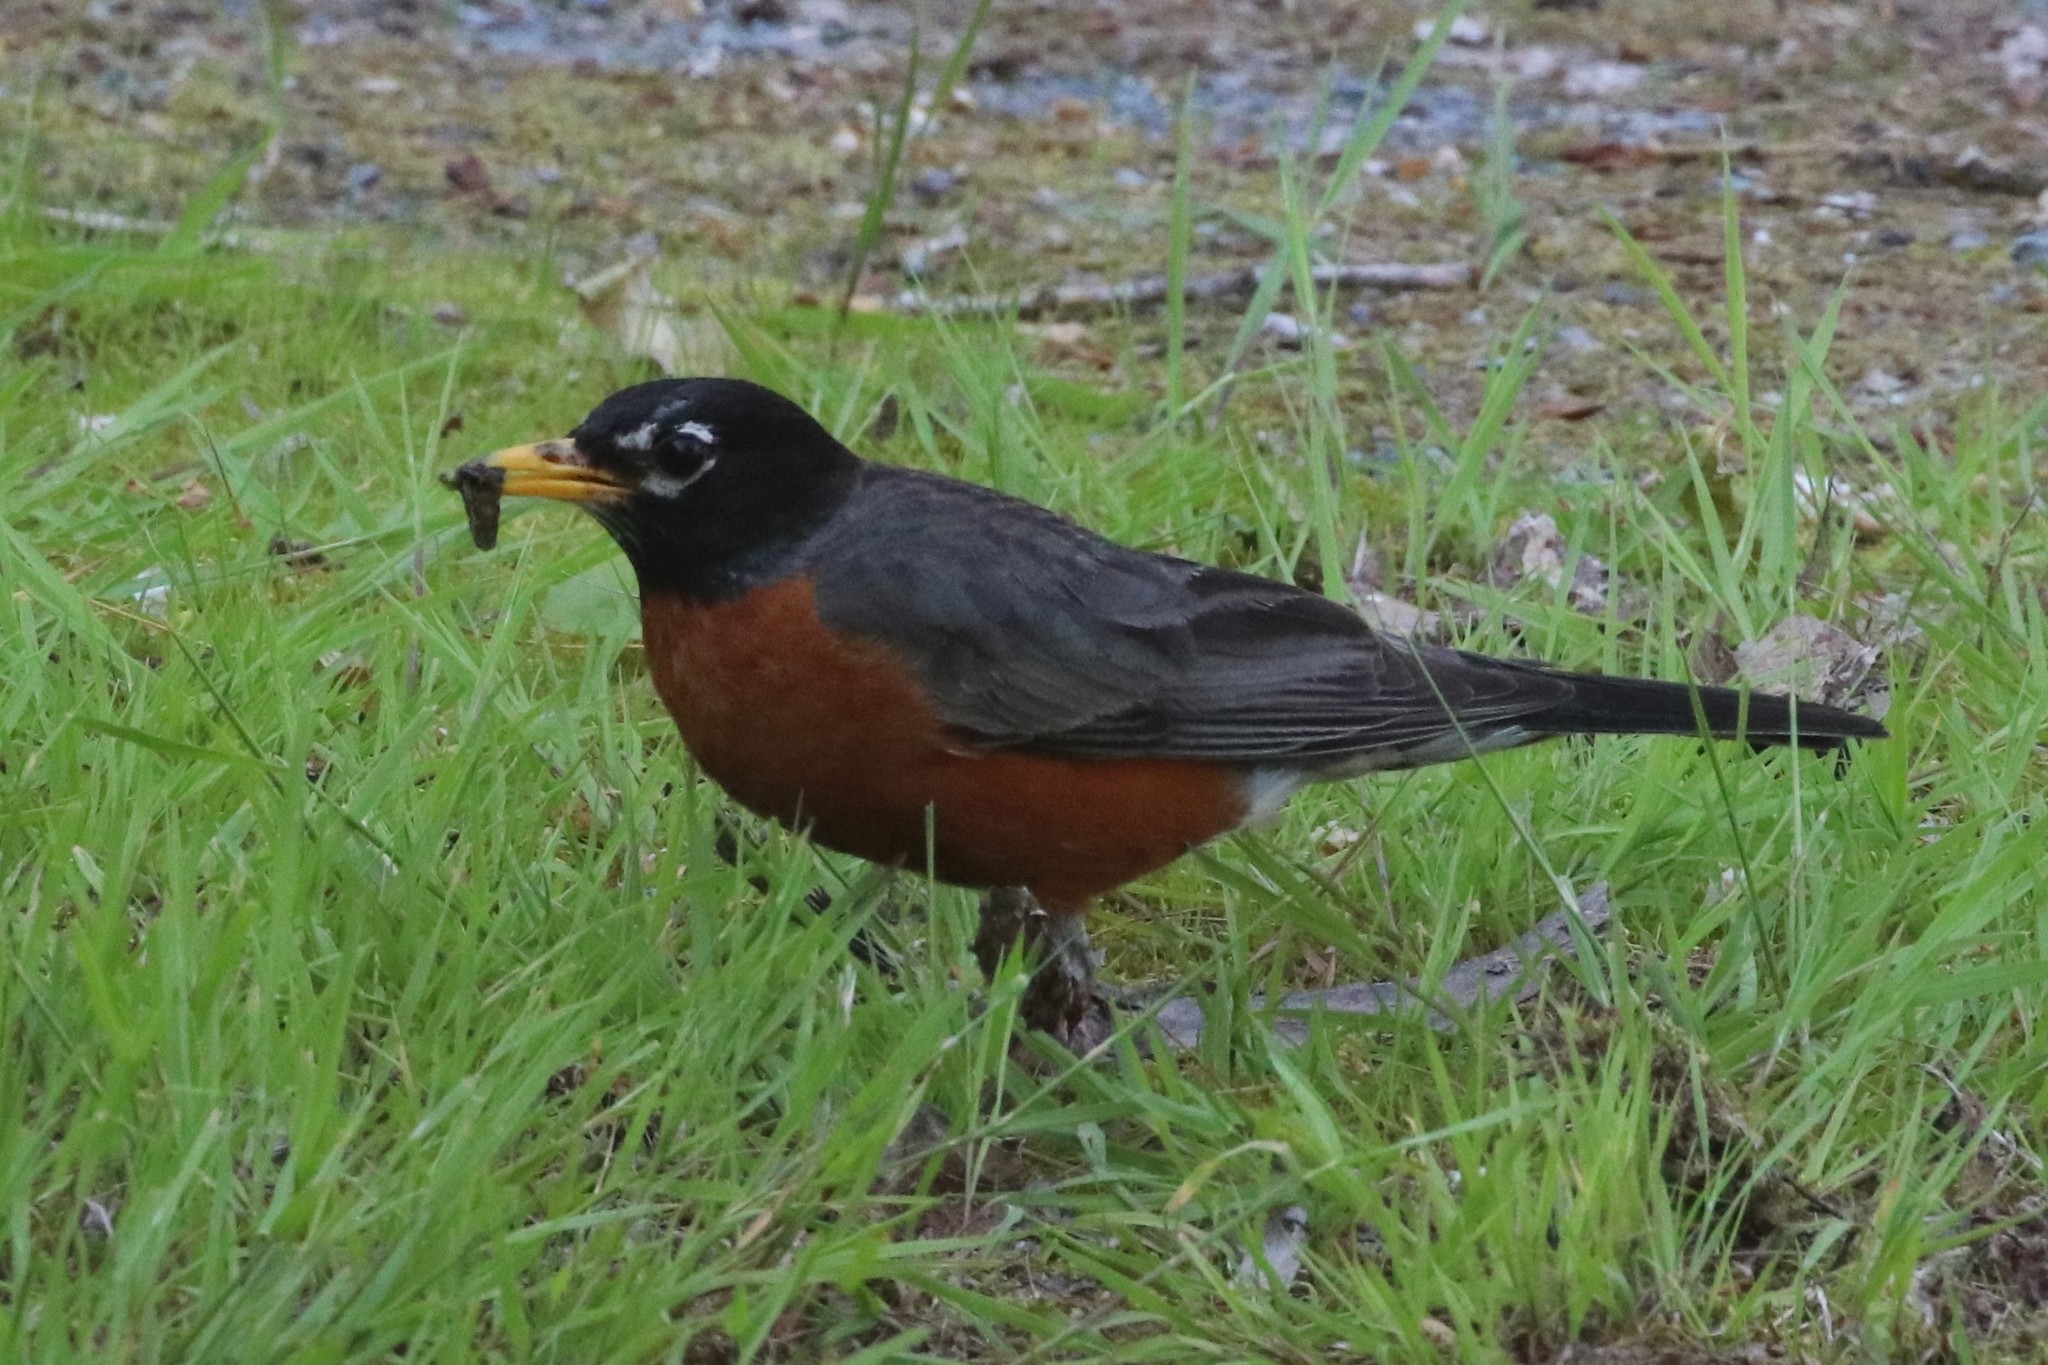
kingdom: Animalia
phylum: Chordata
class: Aves
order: Passeriformes
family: Turdidae
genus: Turdus
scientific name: Turdus migratorius
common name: American robin
